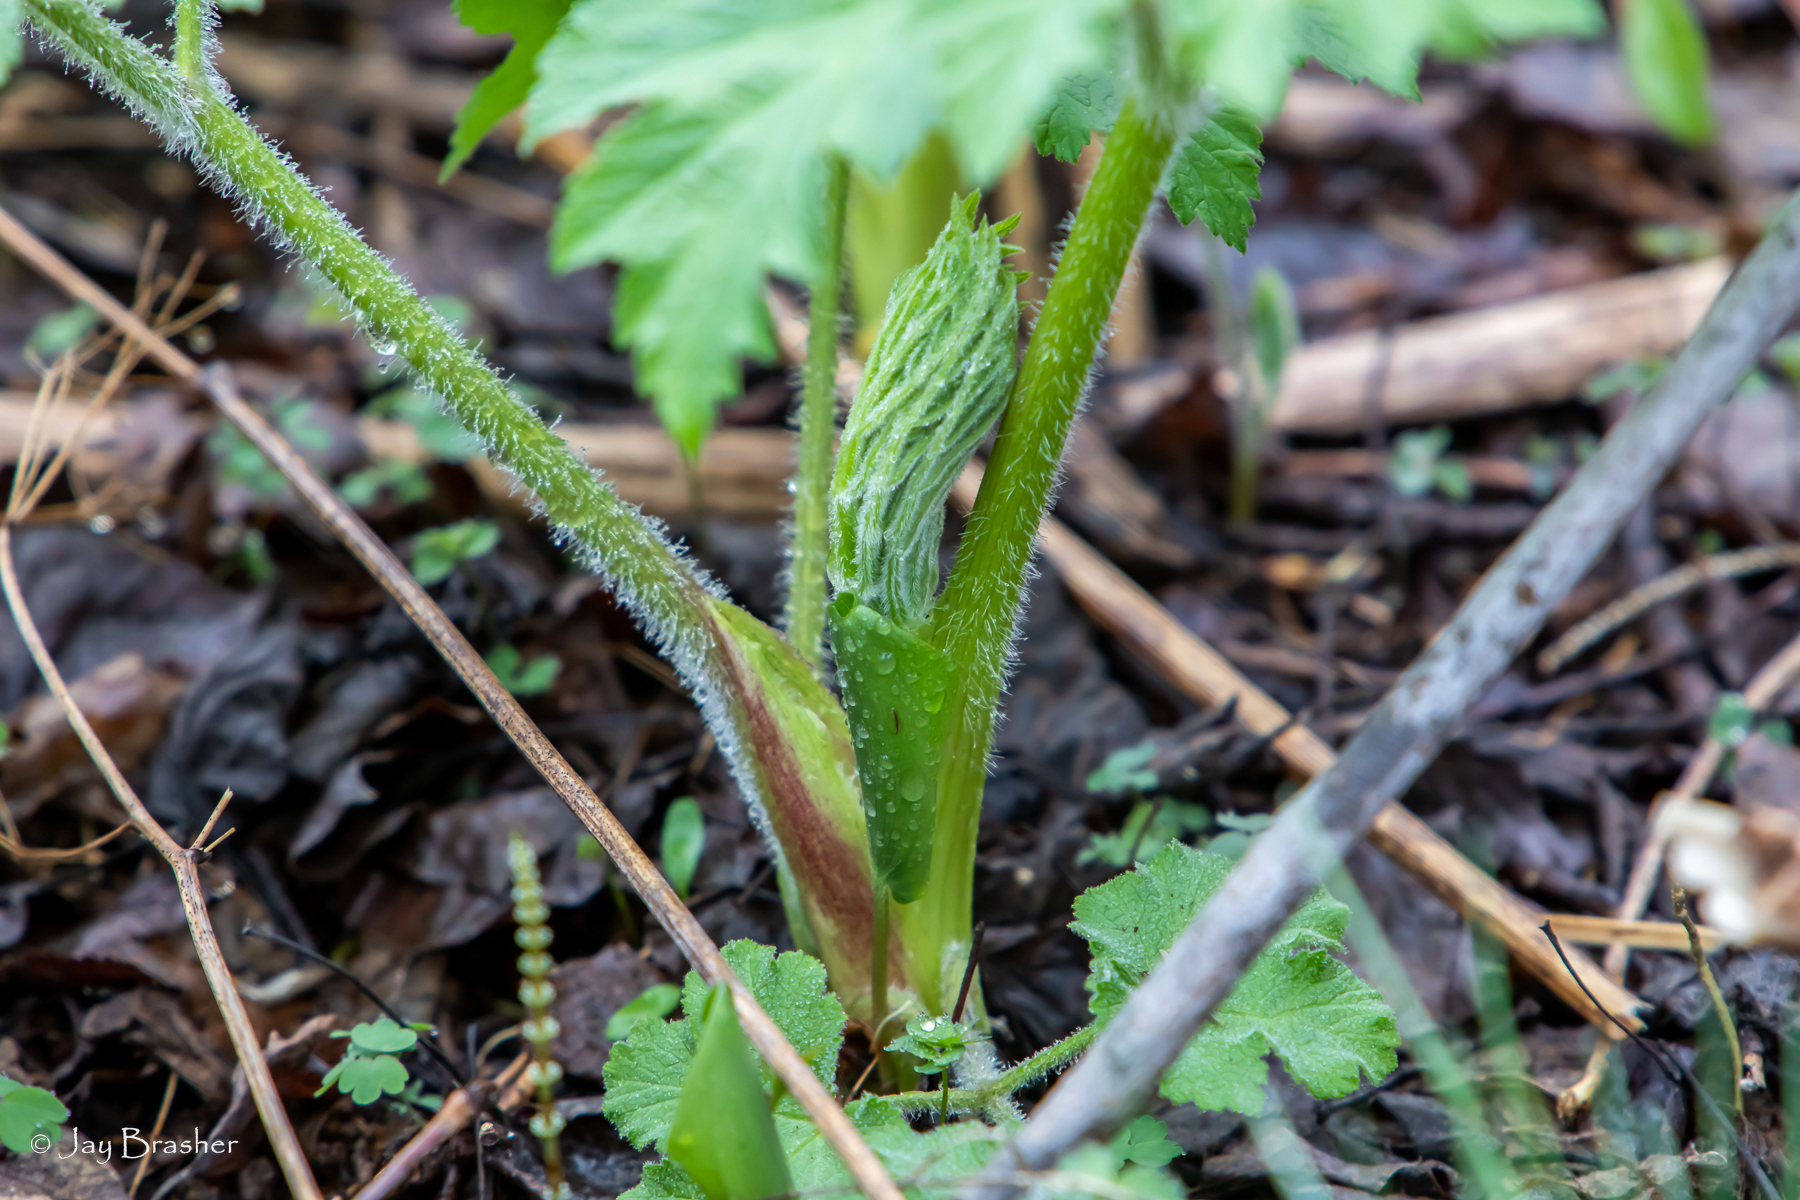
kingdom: Plantae
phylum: Tracheophyta
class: Magnoliopsida
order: Apiales
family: Apiaceae
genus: Heracleum
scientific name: Heracleum maximum
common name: American cow parsnip
